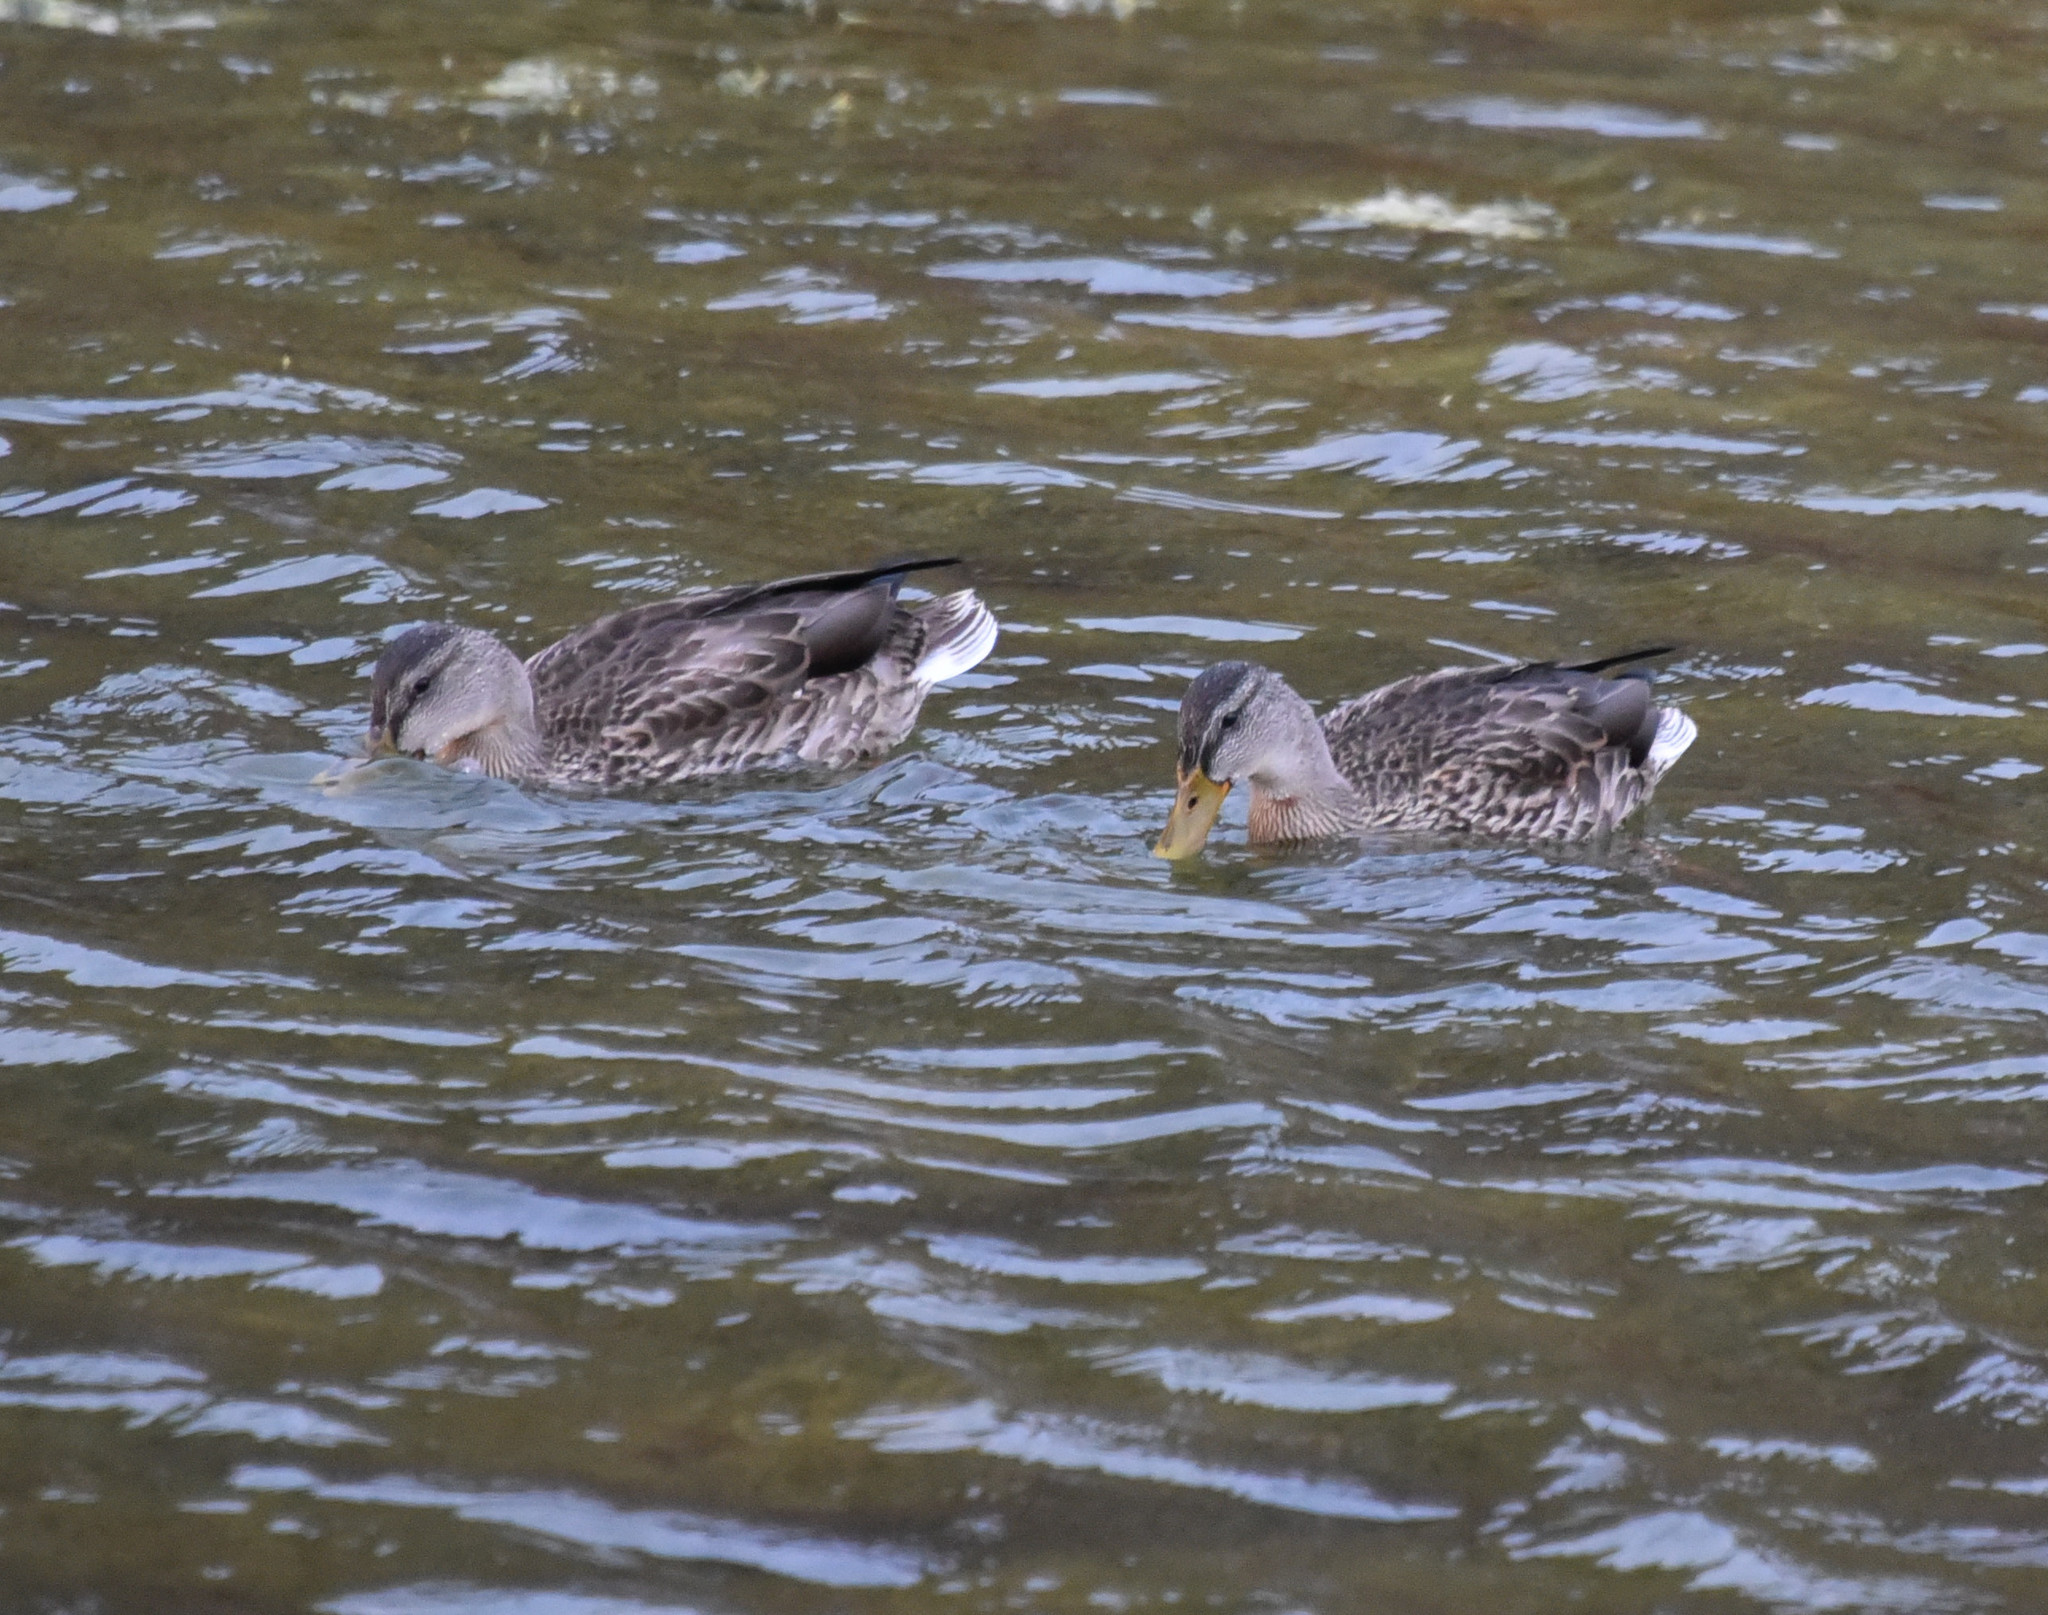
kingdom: Animalia
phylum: Chordata
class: Aves
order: Anseriformes
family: Anatidae
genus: Anas
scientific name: Anas platyrhynchos
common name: Mallard
